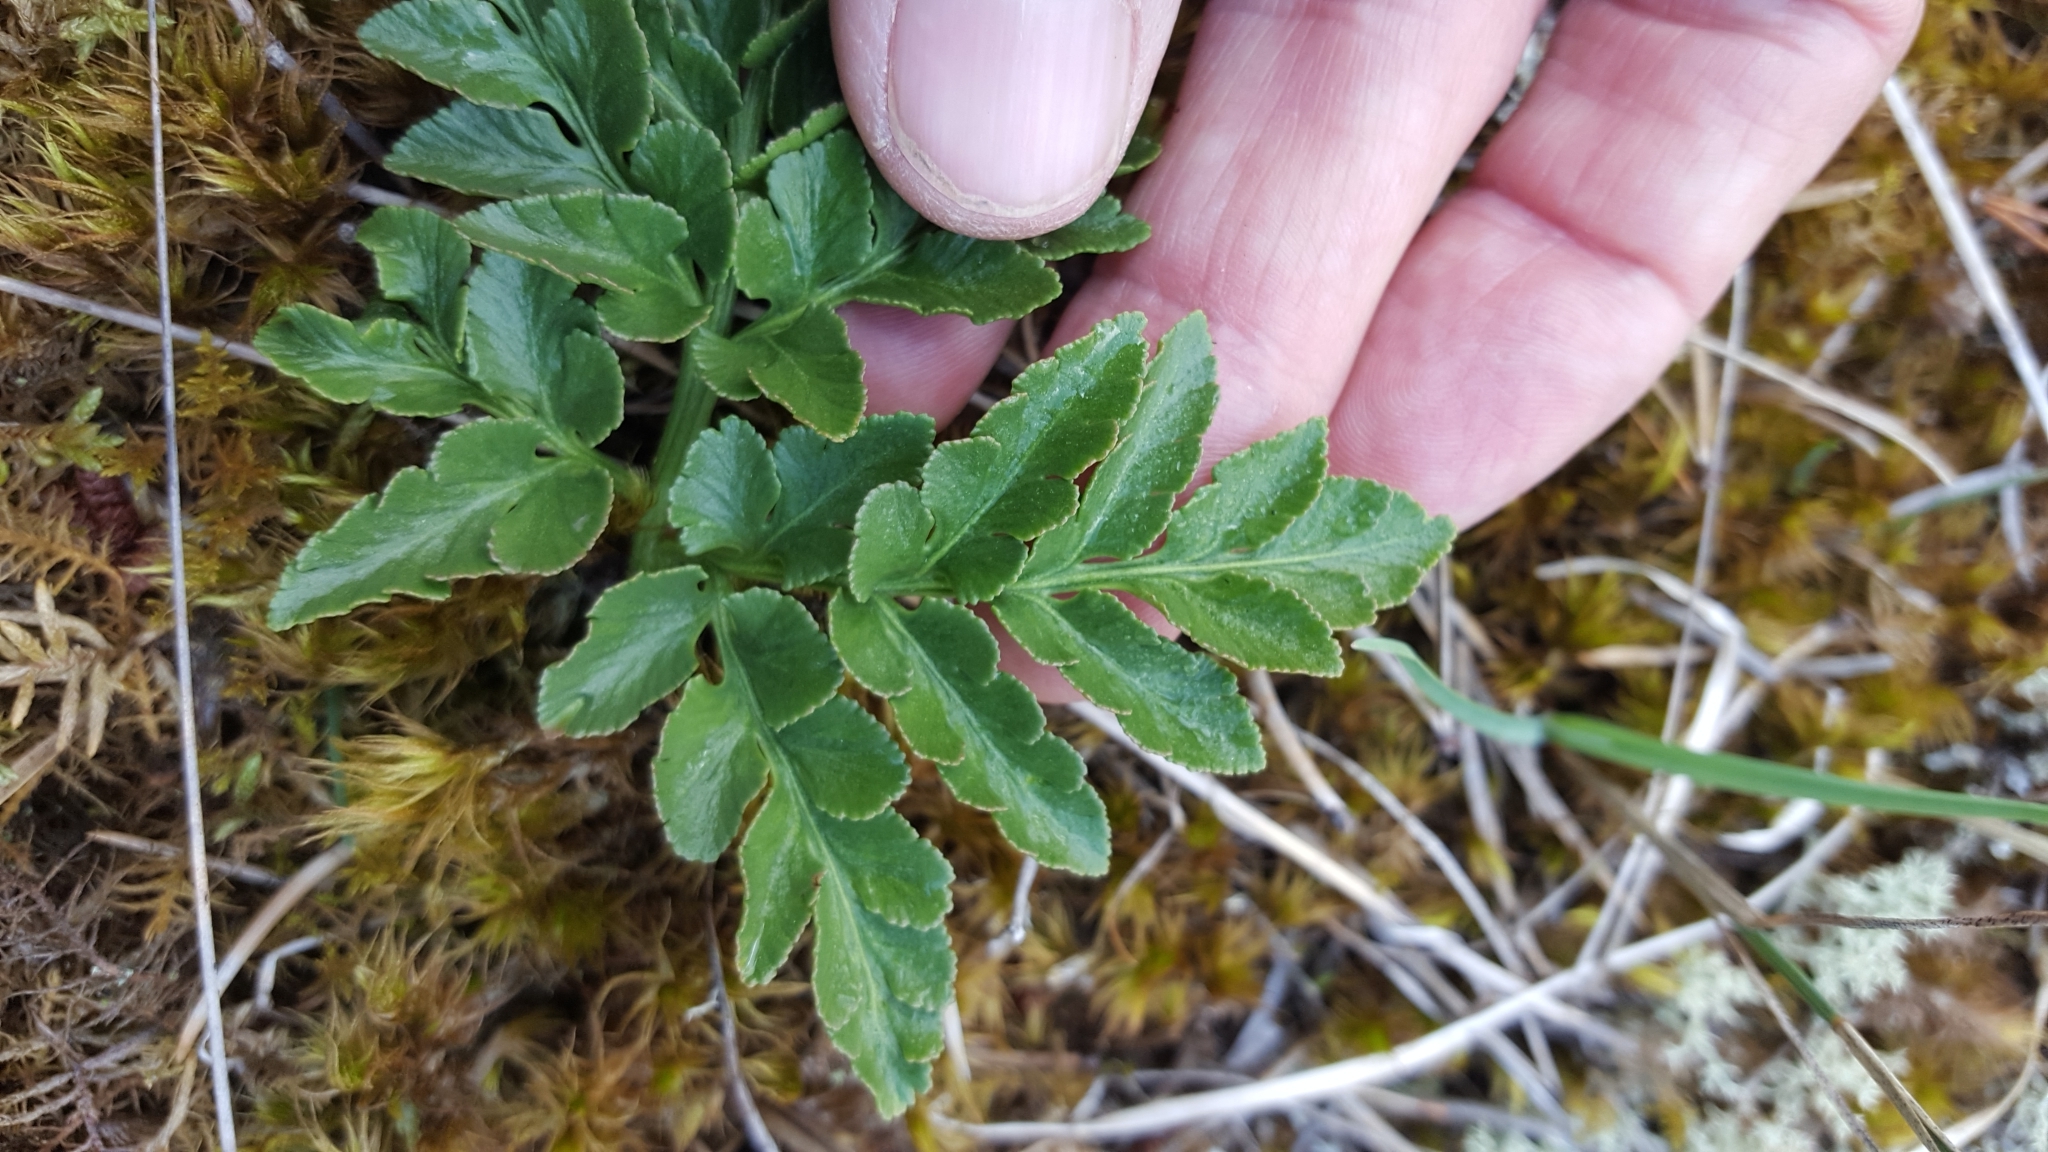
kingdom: Plantae
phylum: Tracheophyta
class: Polypodiopsida
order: Ophioglossales
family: Ophioglossaceae
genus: Sceptridium
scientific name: Sceptridium multifidum
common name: Leathery grape fern
